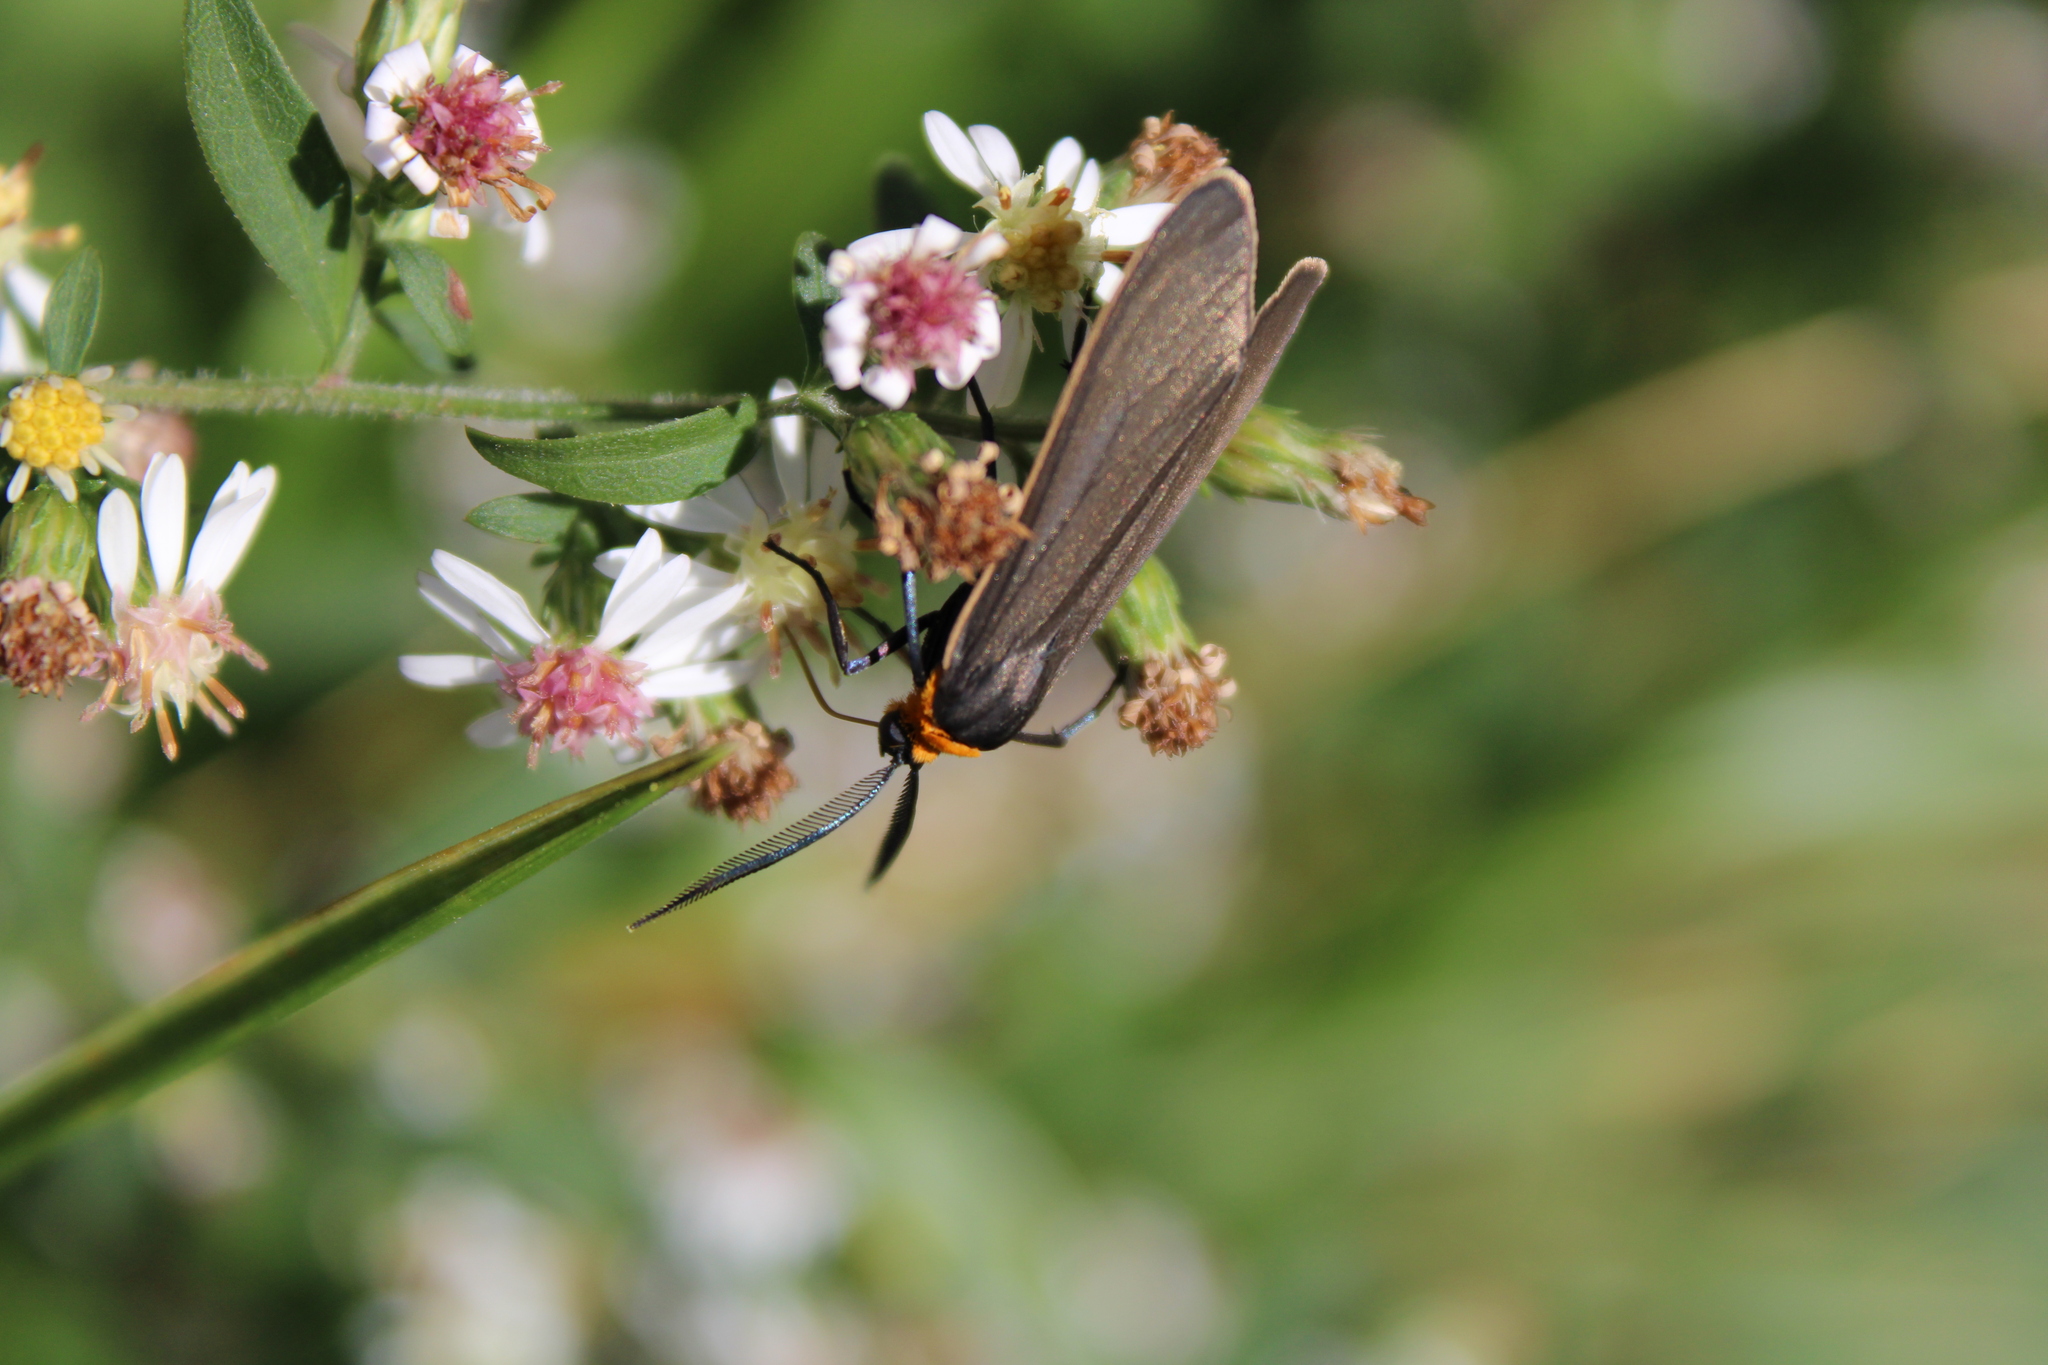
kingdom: Animalia
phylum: Arthropoda
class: Insecta
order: Lepidoptera
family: Erebidae
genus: Cisseps
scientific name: Cisseps fulvicollis
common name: Yellow-collared scape moth
